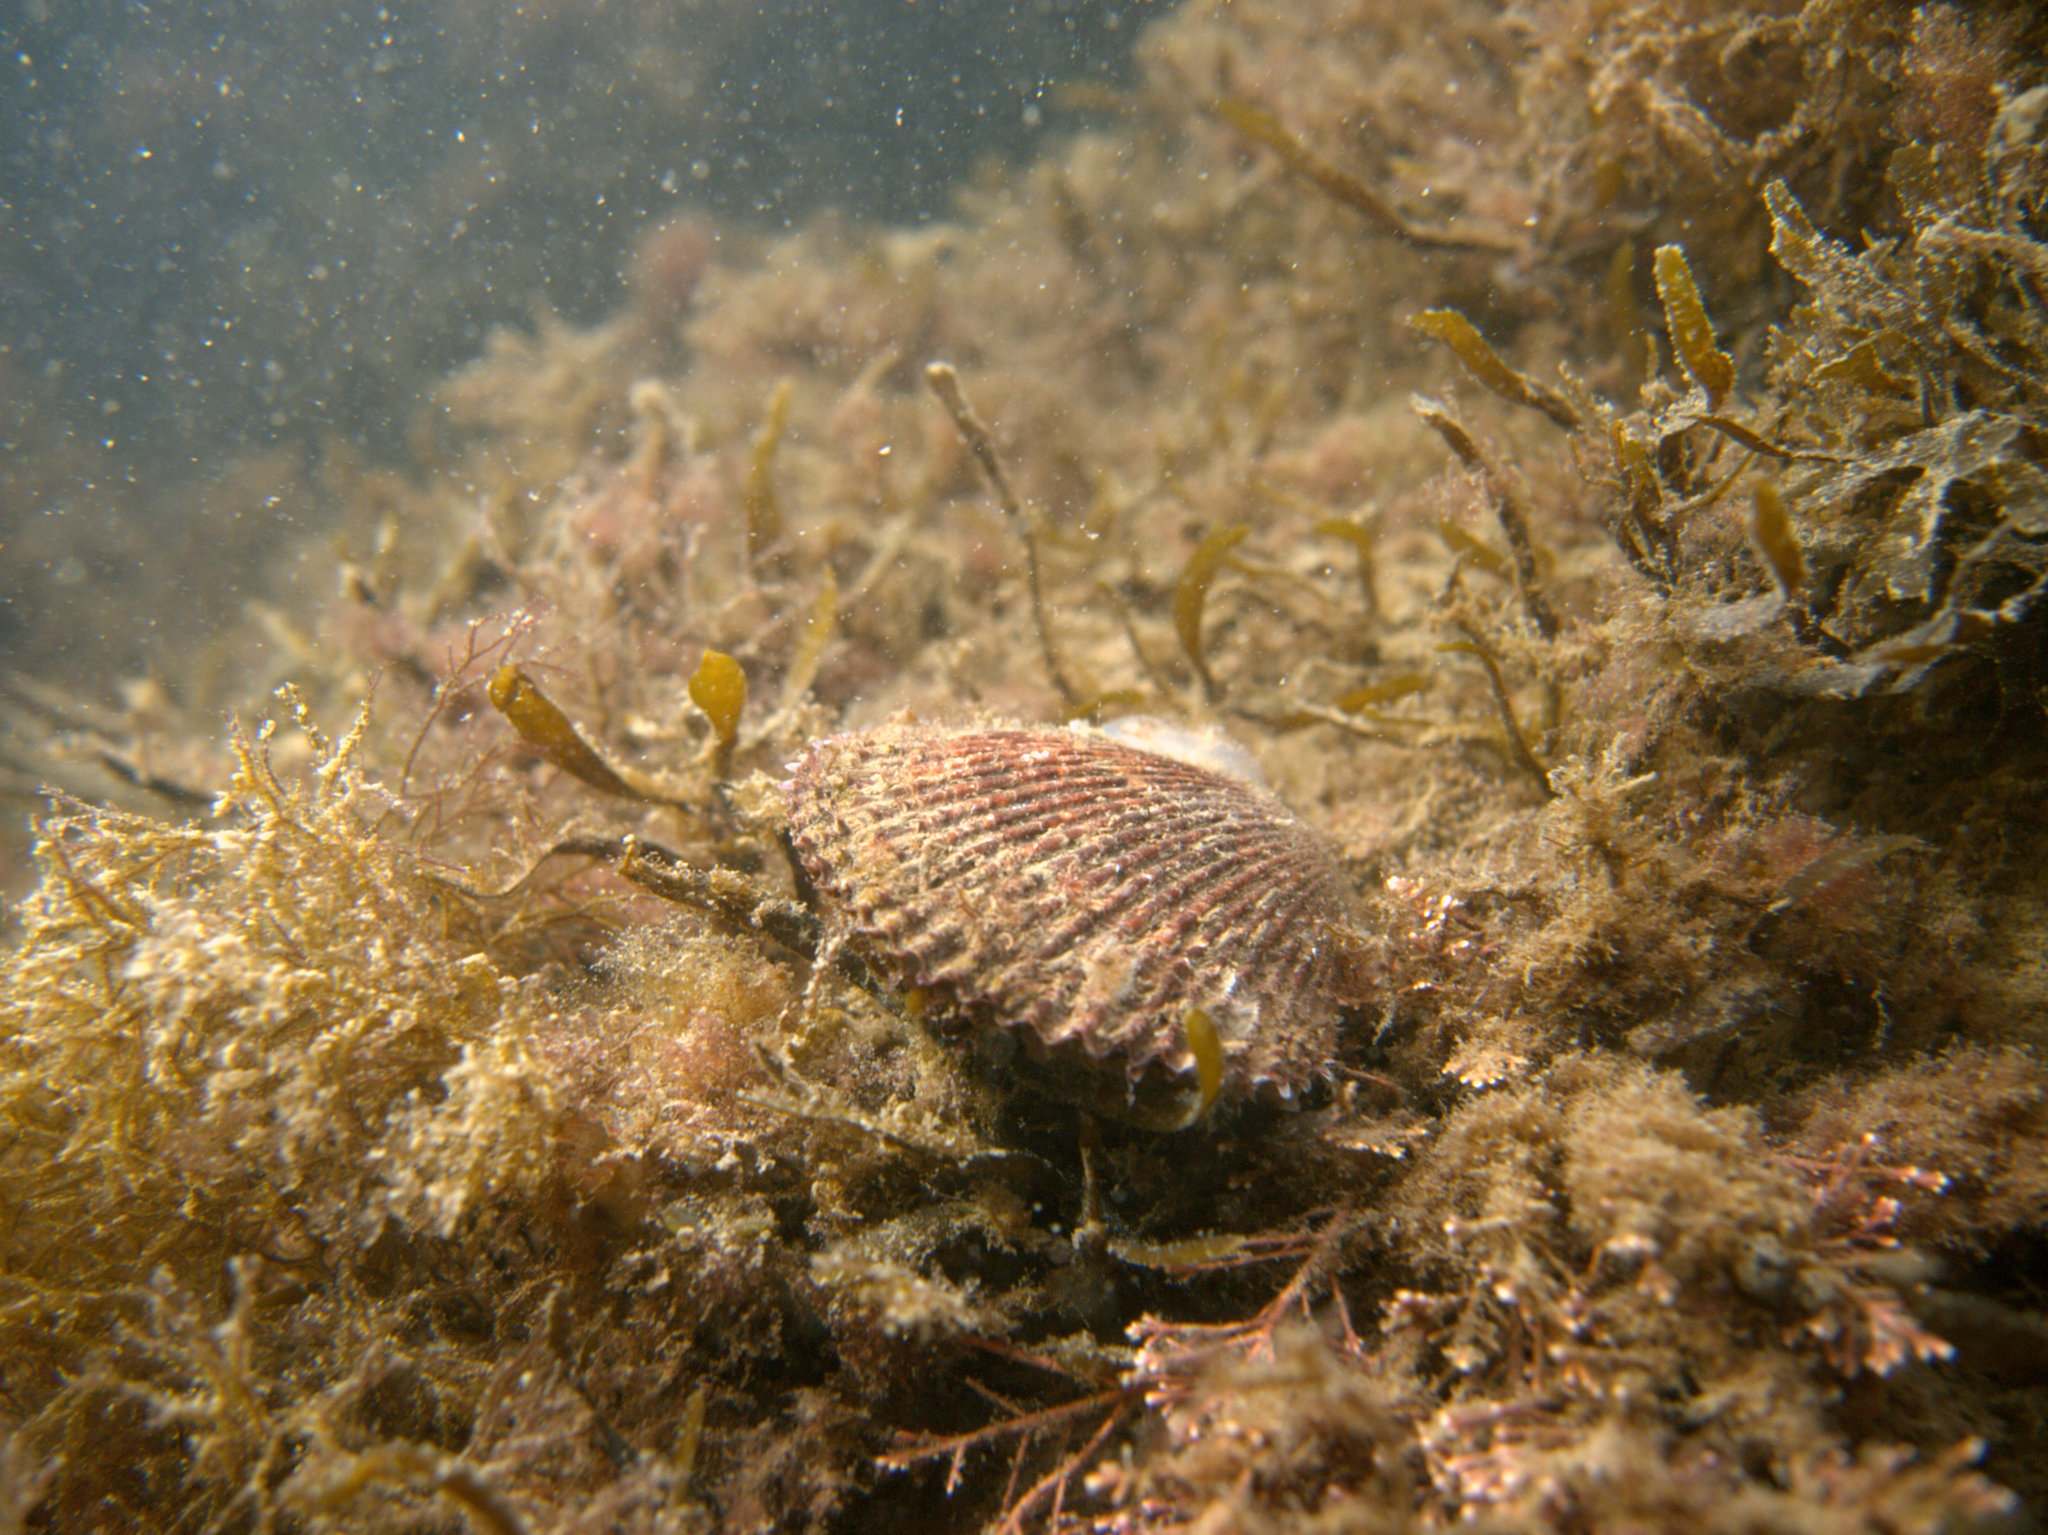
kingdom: Animalia
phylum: Mollusca
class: Bivalvia
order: Pectinida
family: Pectinidae
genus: Mimachlamys
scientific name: Mimachlamys varia
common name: Variegated scallop
